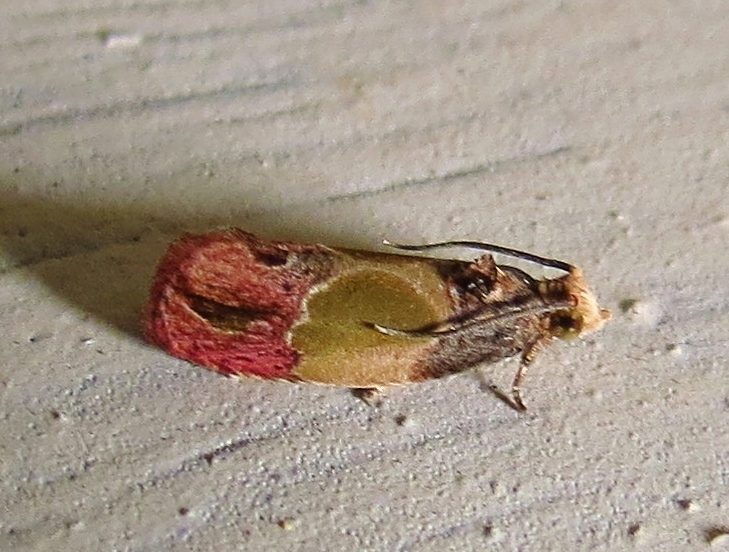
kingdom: Animalia
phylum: Arthropoda
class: Insecta
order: Lepidoptera
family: Tortricidae
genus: Eumarozia
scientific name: Eumarozia malachitana
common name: Sculptured moth
